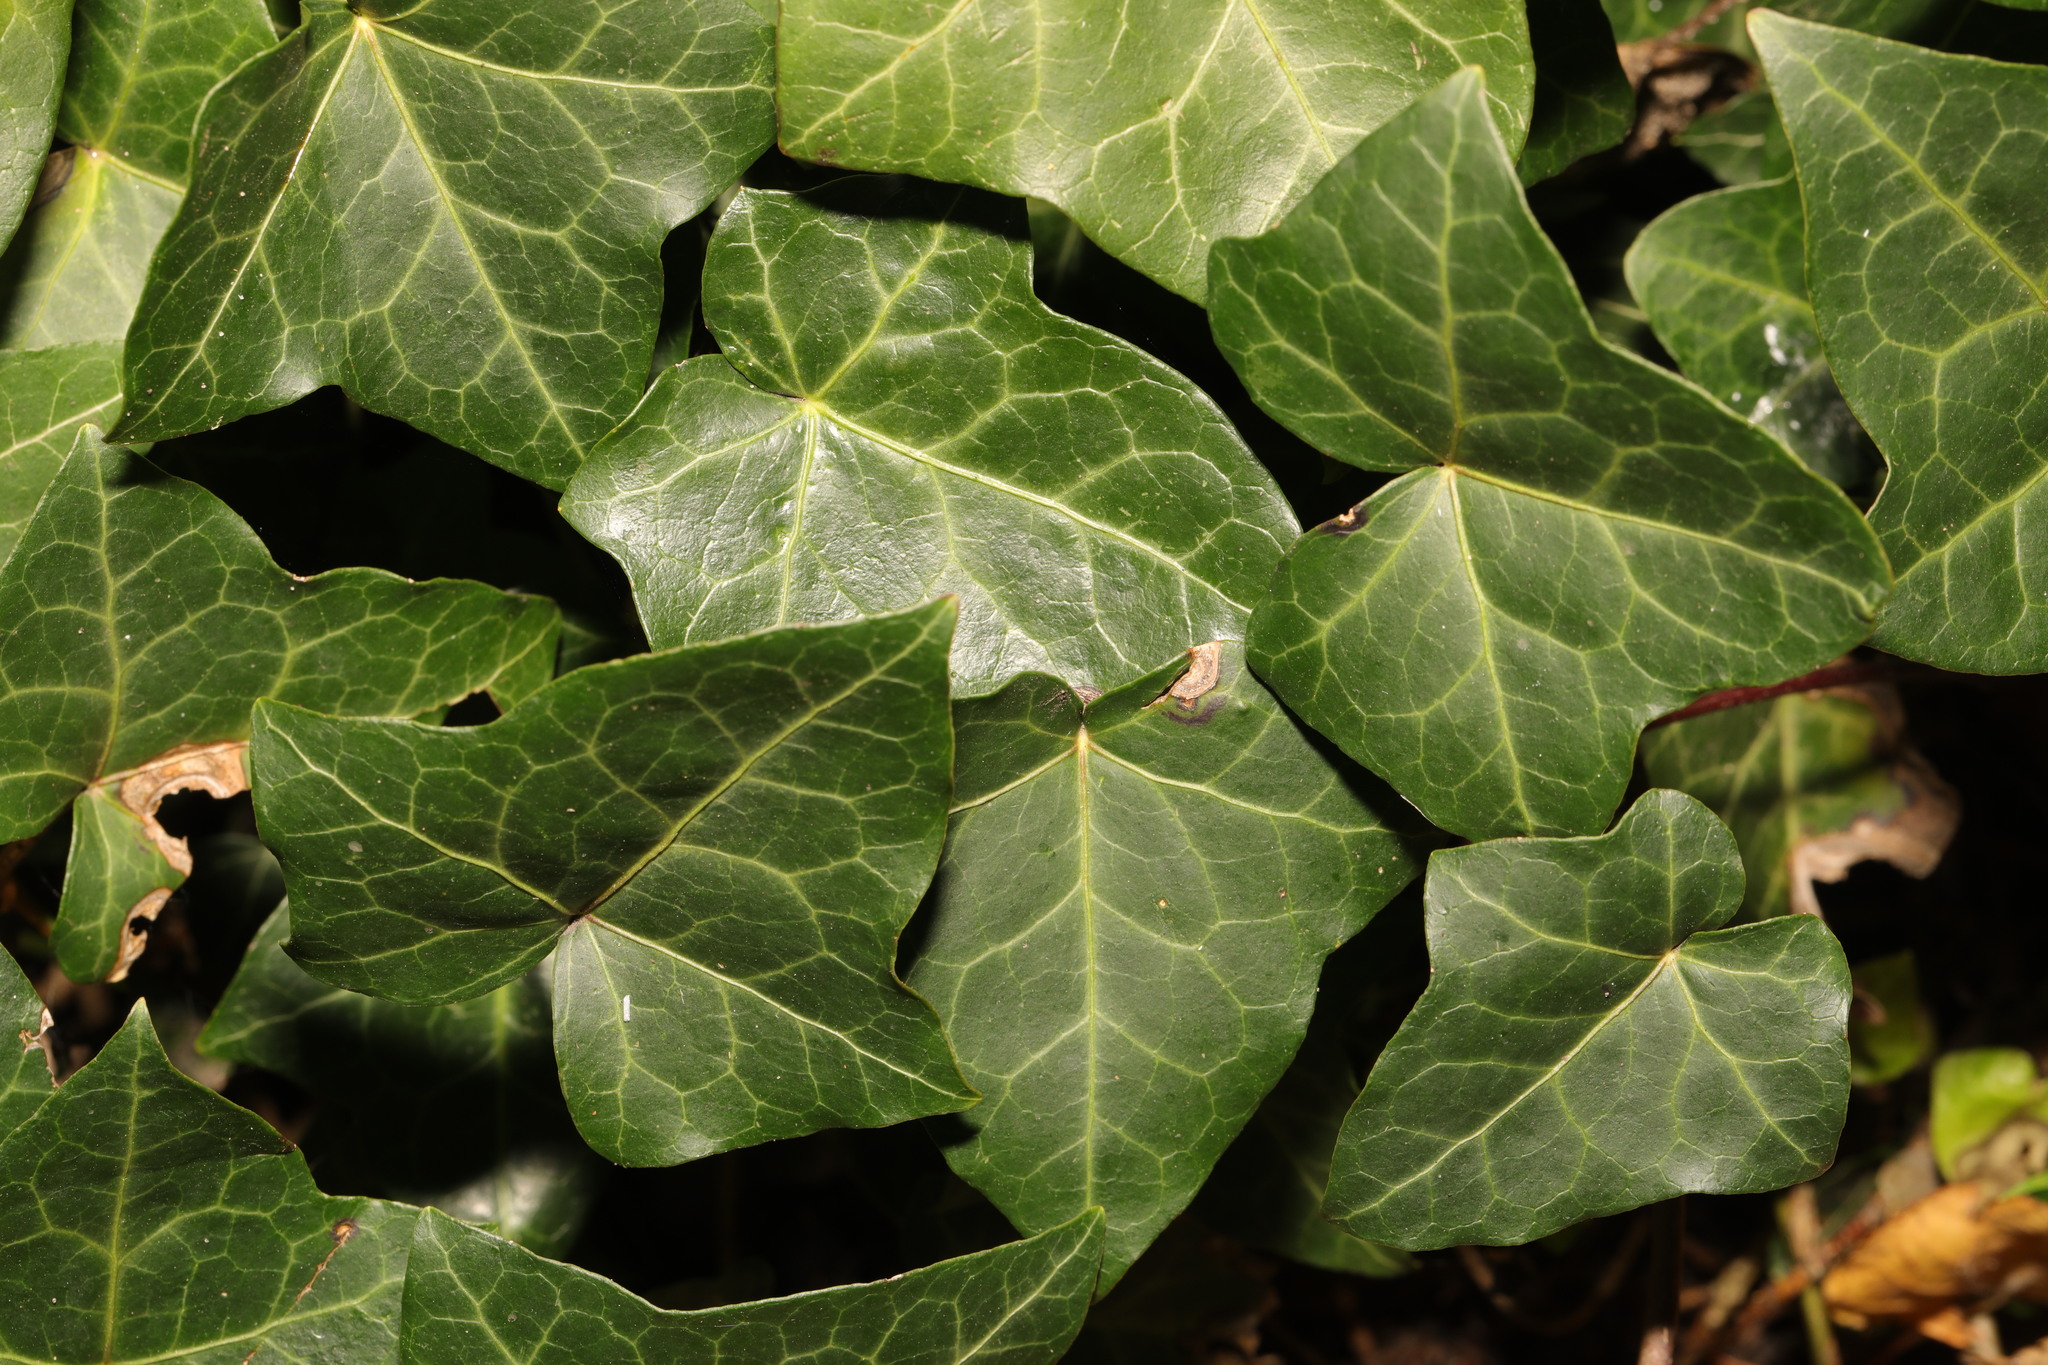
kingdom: Plantae
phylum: Tracheophyta
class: Magnoliopsida
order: Apiales
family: Araliaceae
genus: Hedera
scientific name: Hedera helix
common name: Ivy
